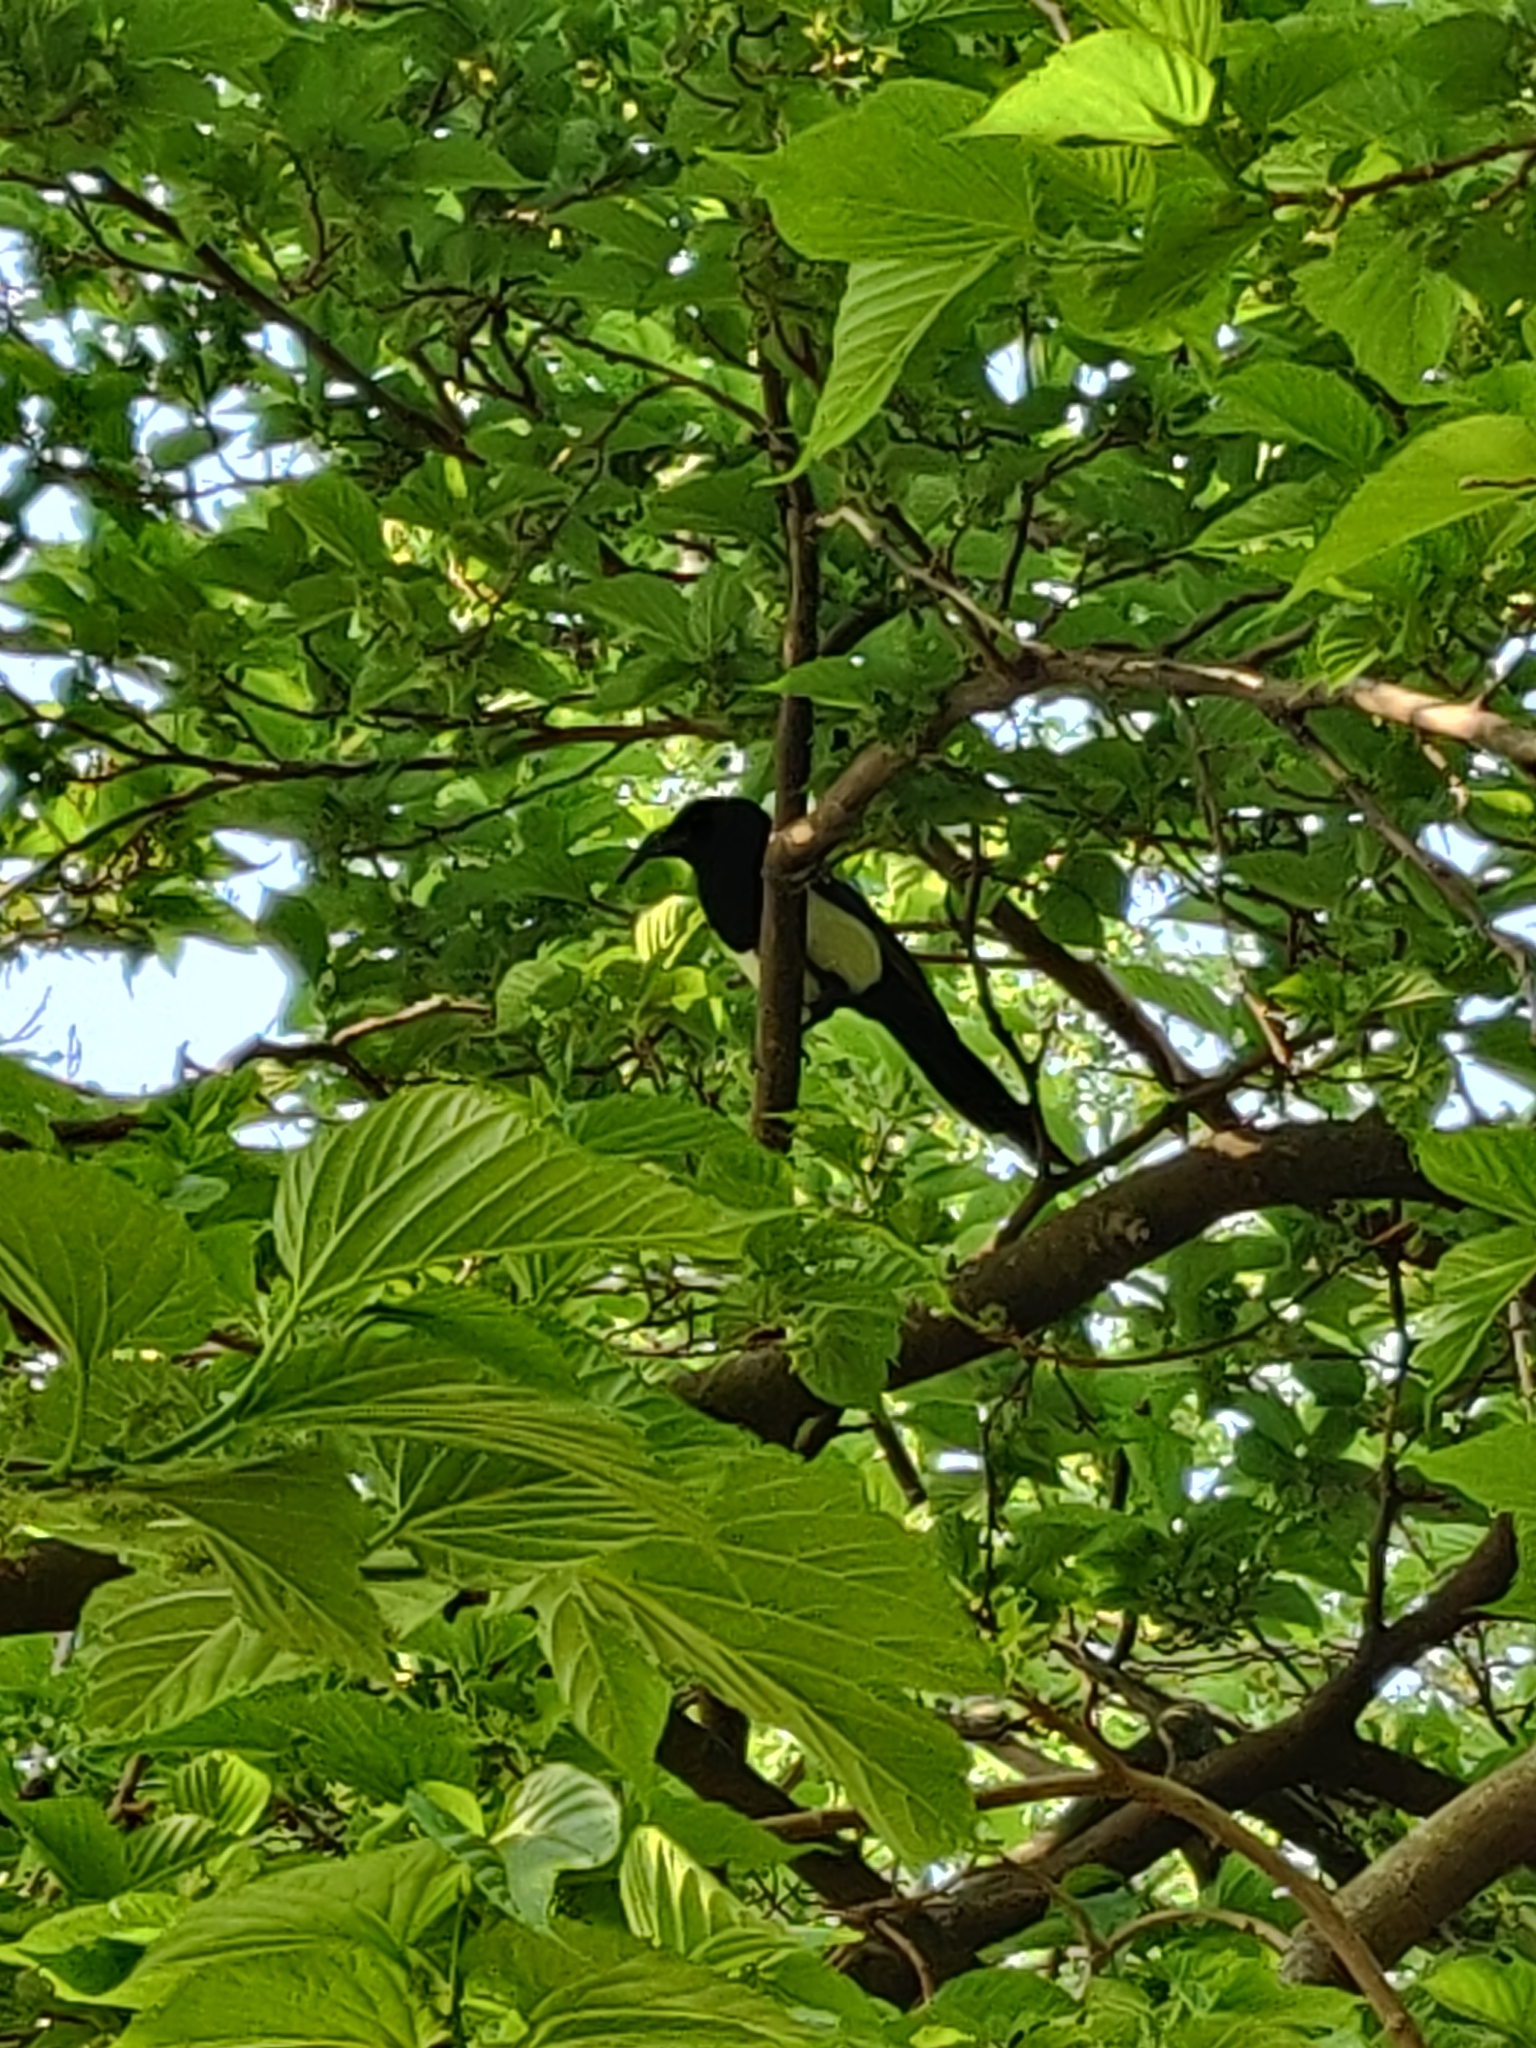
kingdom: Animalia
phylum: Chordata
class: Aves
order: Passeriformes
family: Corvidae
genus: Pica
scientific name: Pica pica
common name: Eurasian magpie
